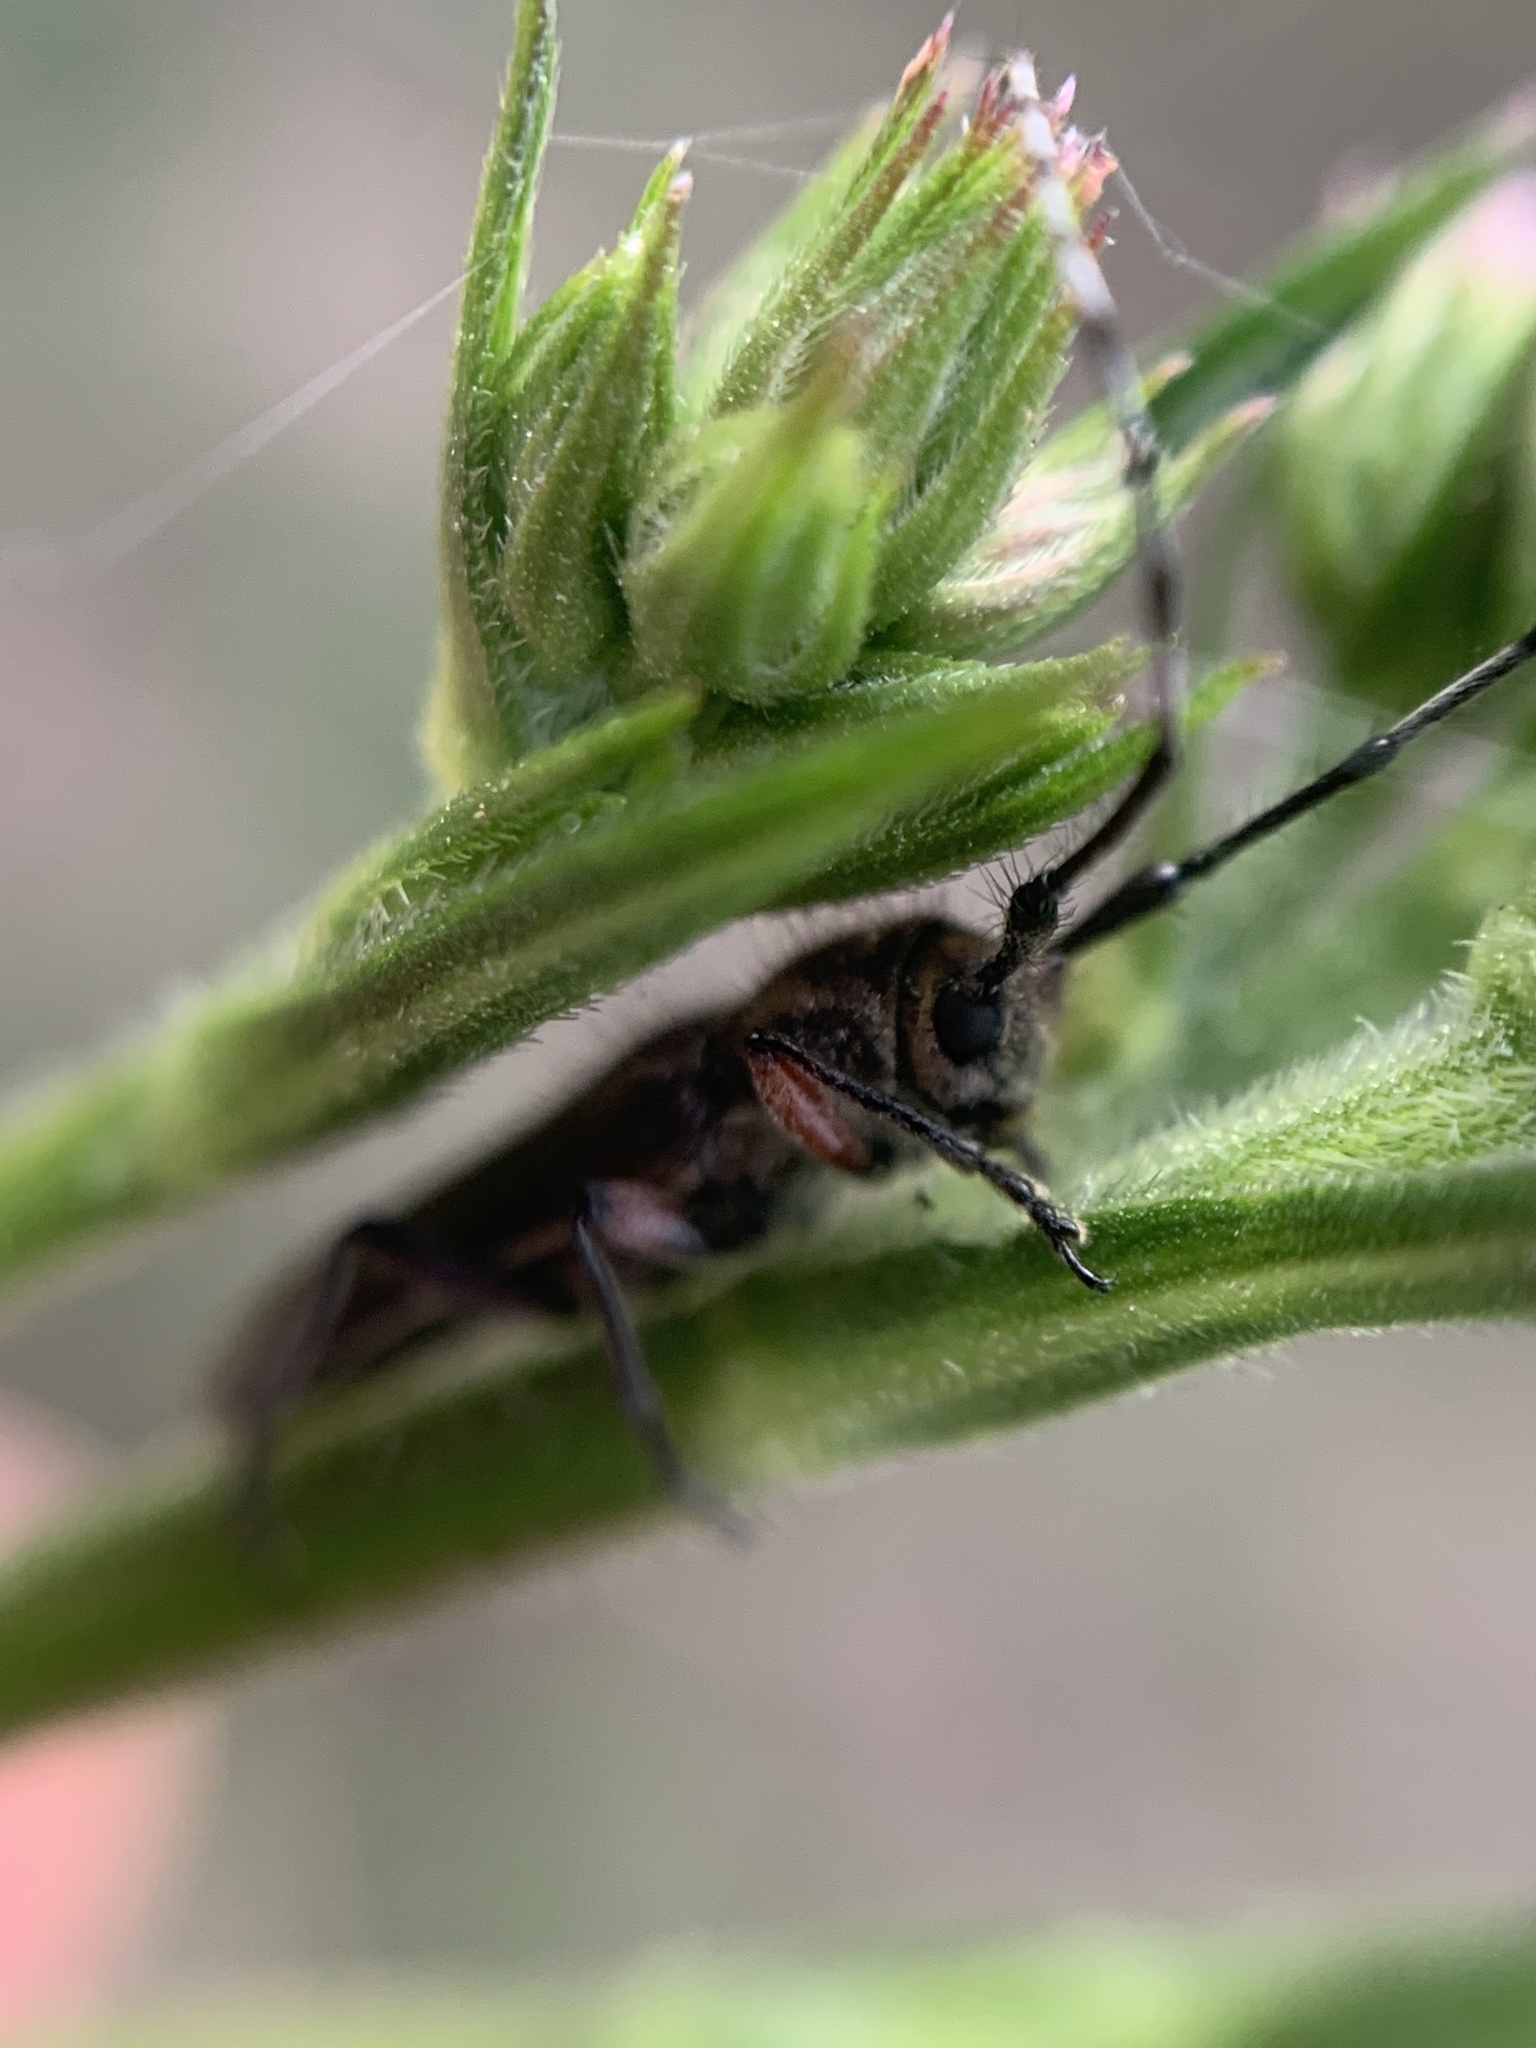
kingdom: Animalia
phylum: Arthropoda
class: Insecta
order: Coleoptera
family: Cerambycidae
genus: Emphytoeciosoma
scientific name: Emphytoeciosoma daguerrei
